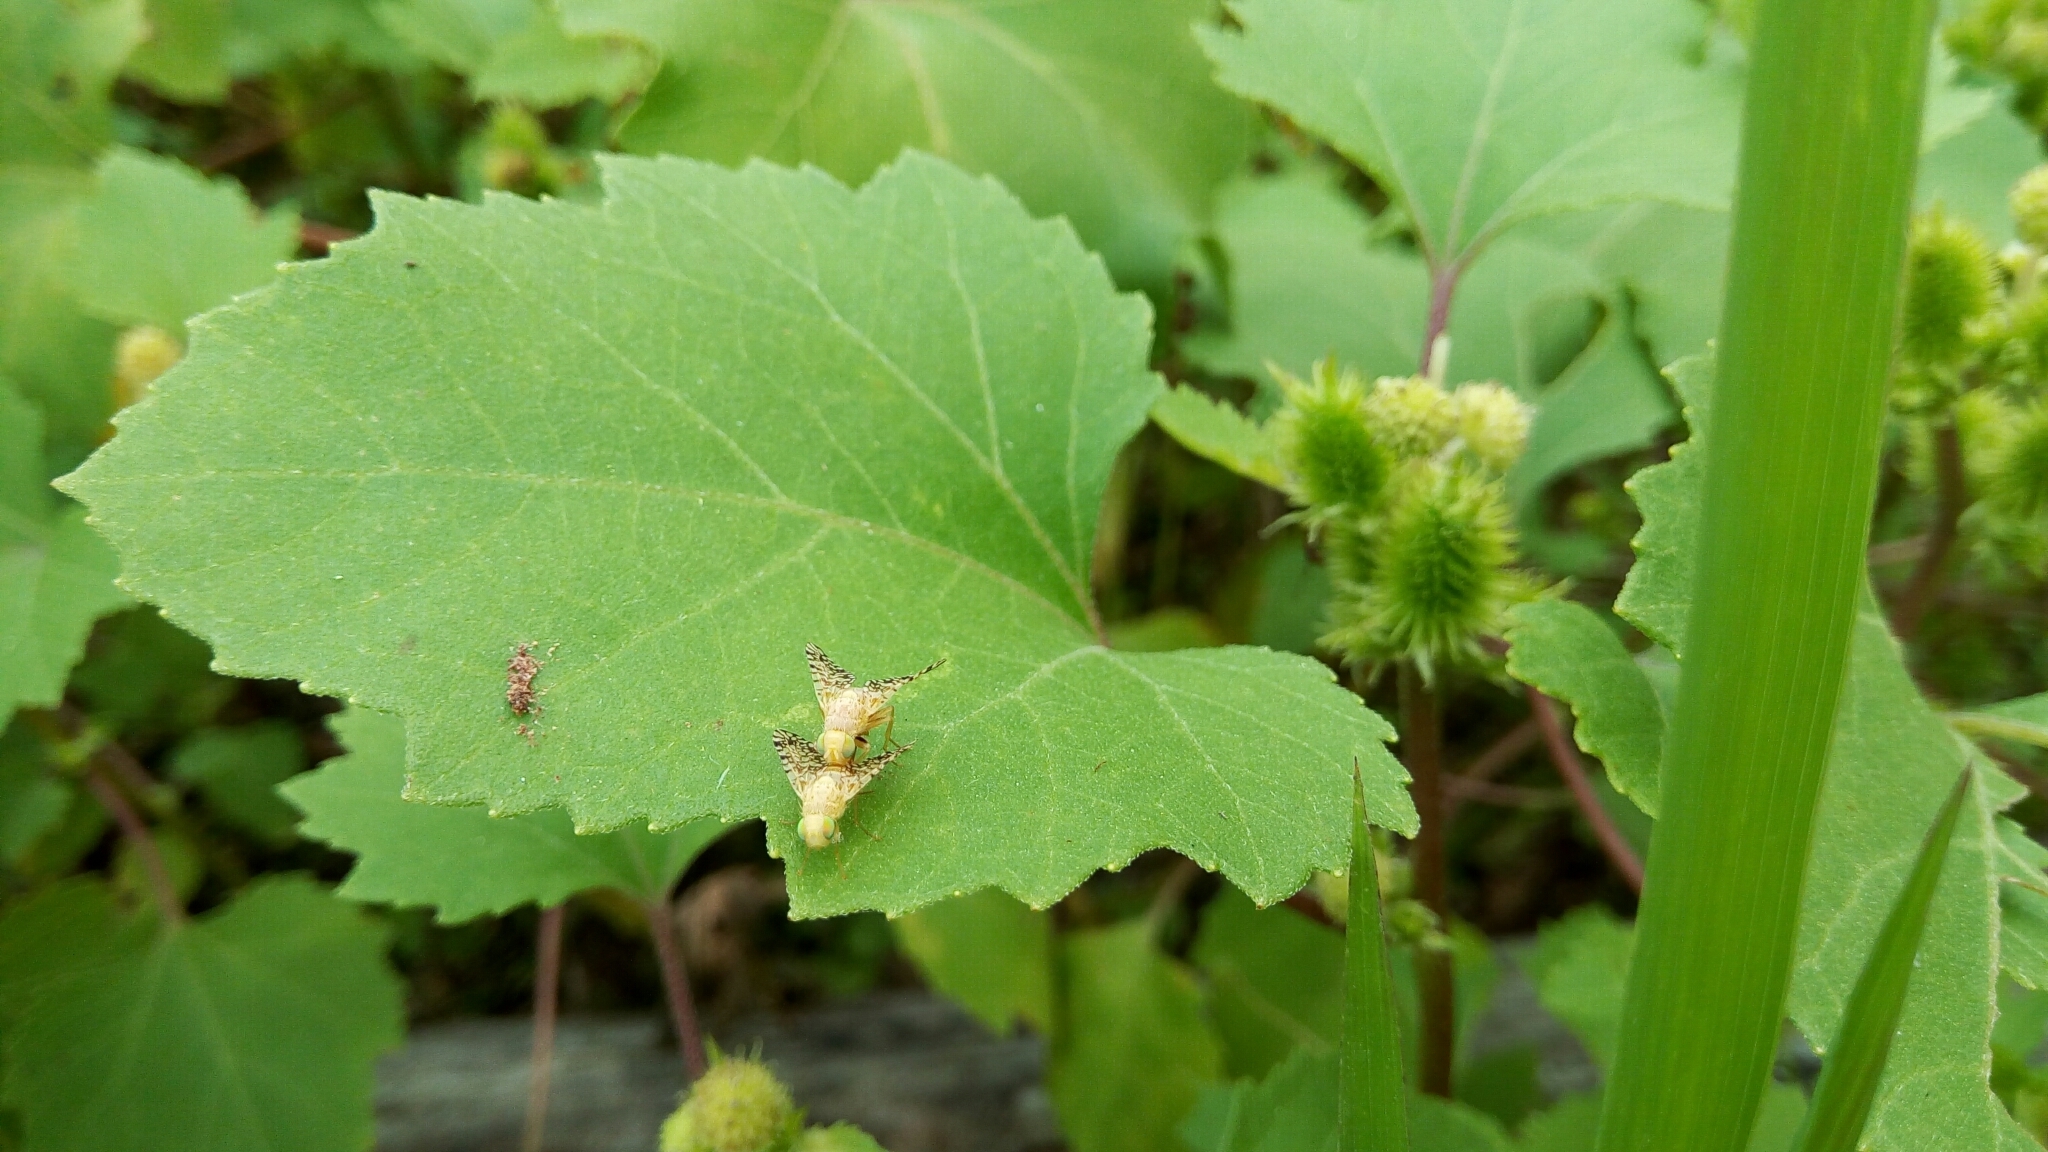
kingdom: Animalia
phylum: Arthropoda
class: Insecta
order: Diptera
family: Tephritidae
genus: Euaresta
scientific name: Euaresta aequalis
